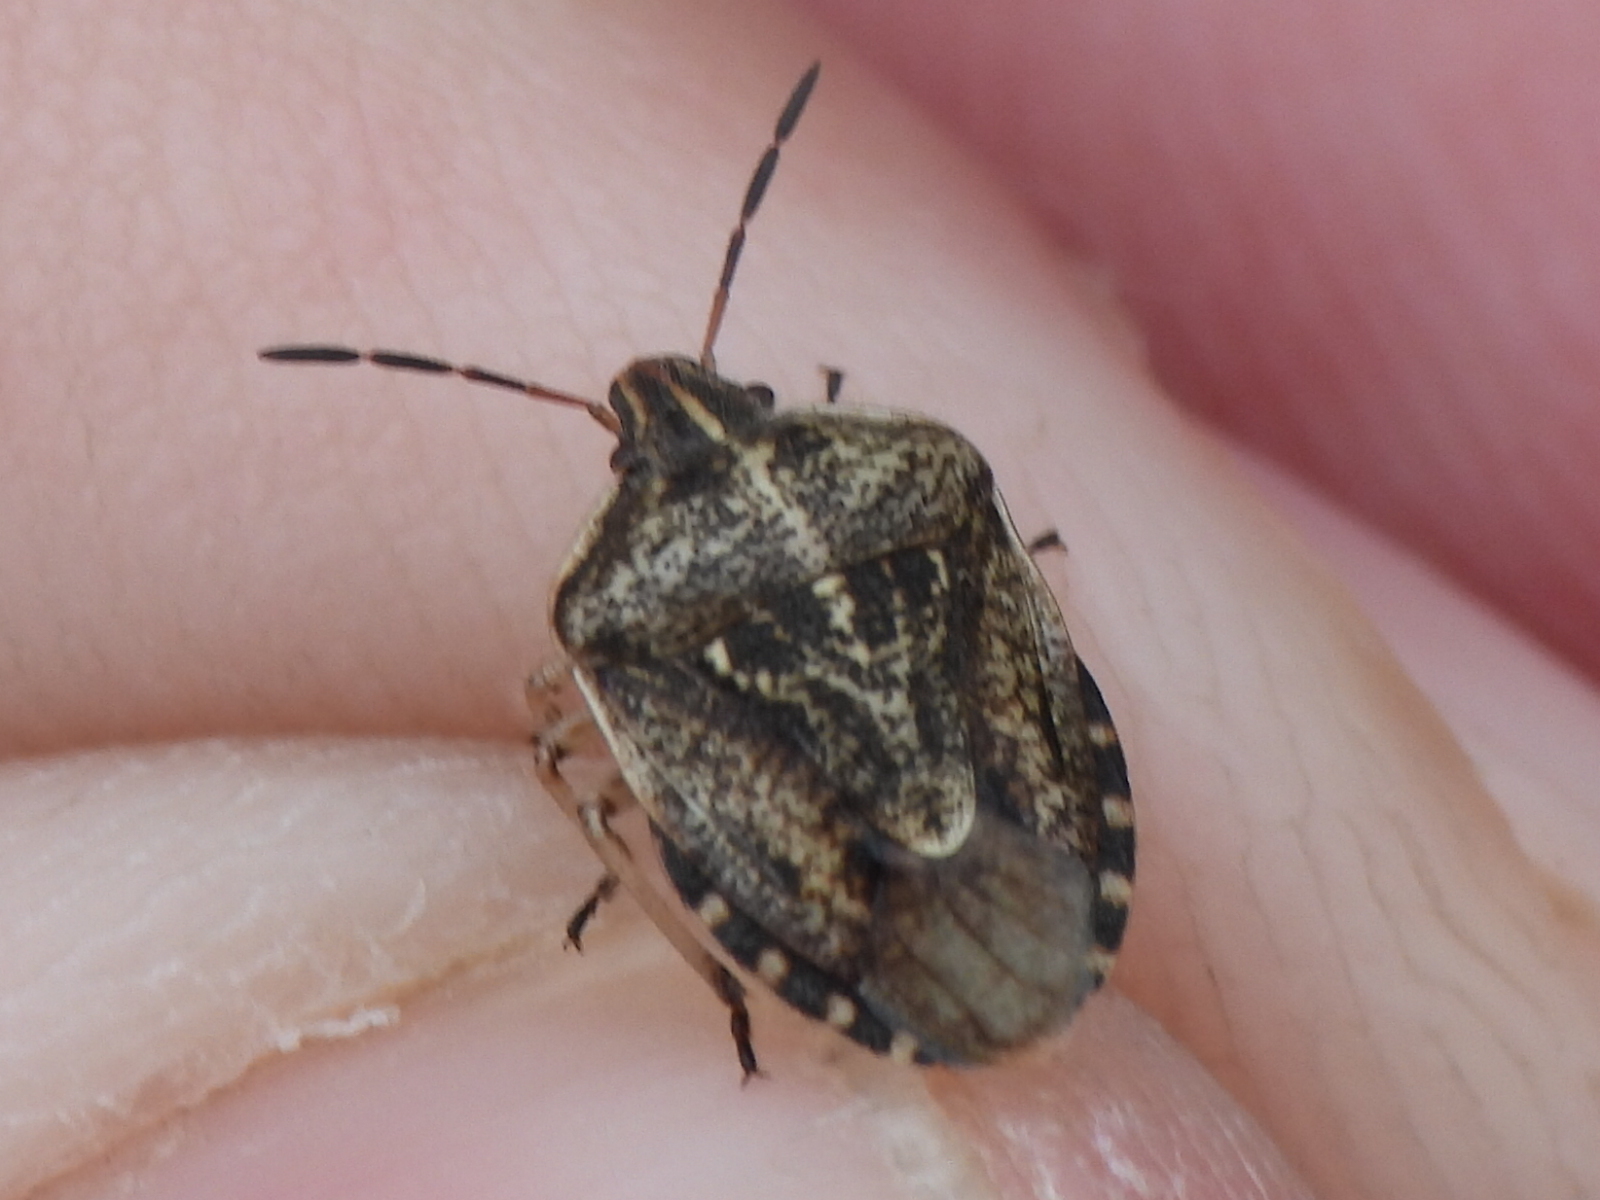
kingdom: Animalia
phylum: Arthropoda
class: Insecta
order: Hemiptera
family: Pentatomidae
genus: Trichopepla
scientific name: Trichopepla semivittata
